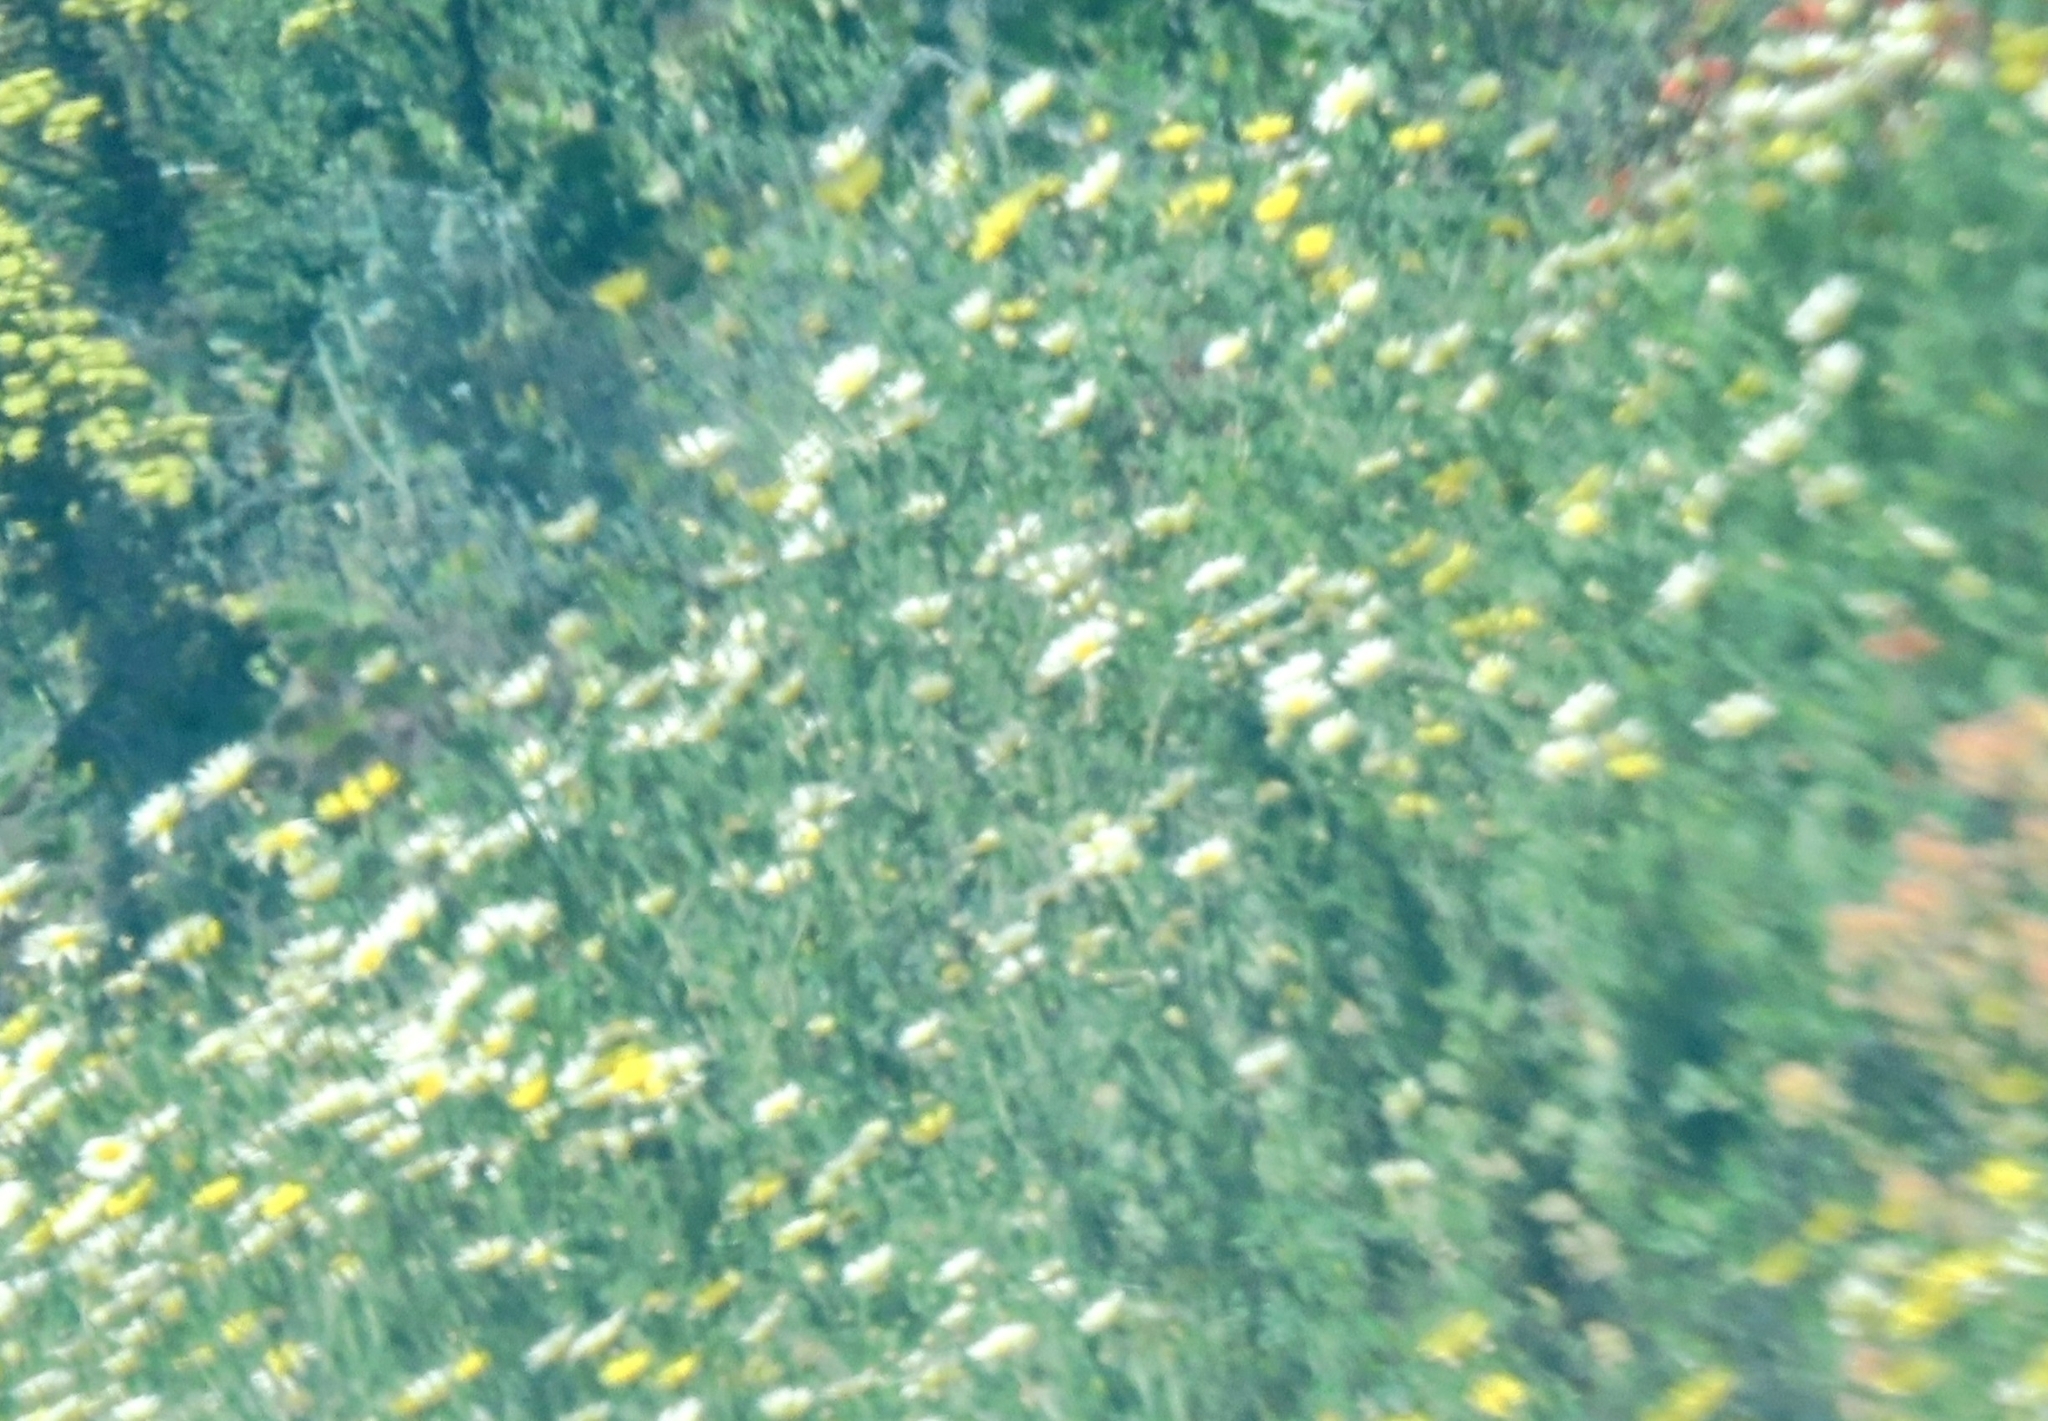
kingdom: Plantae
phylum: Tracheophyta
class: Magnoliopsida
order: Asterales
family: Asteraceae
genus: Glebionis
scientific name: Glebionis coronaria
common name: Crowndaisy
